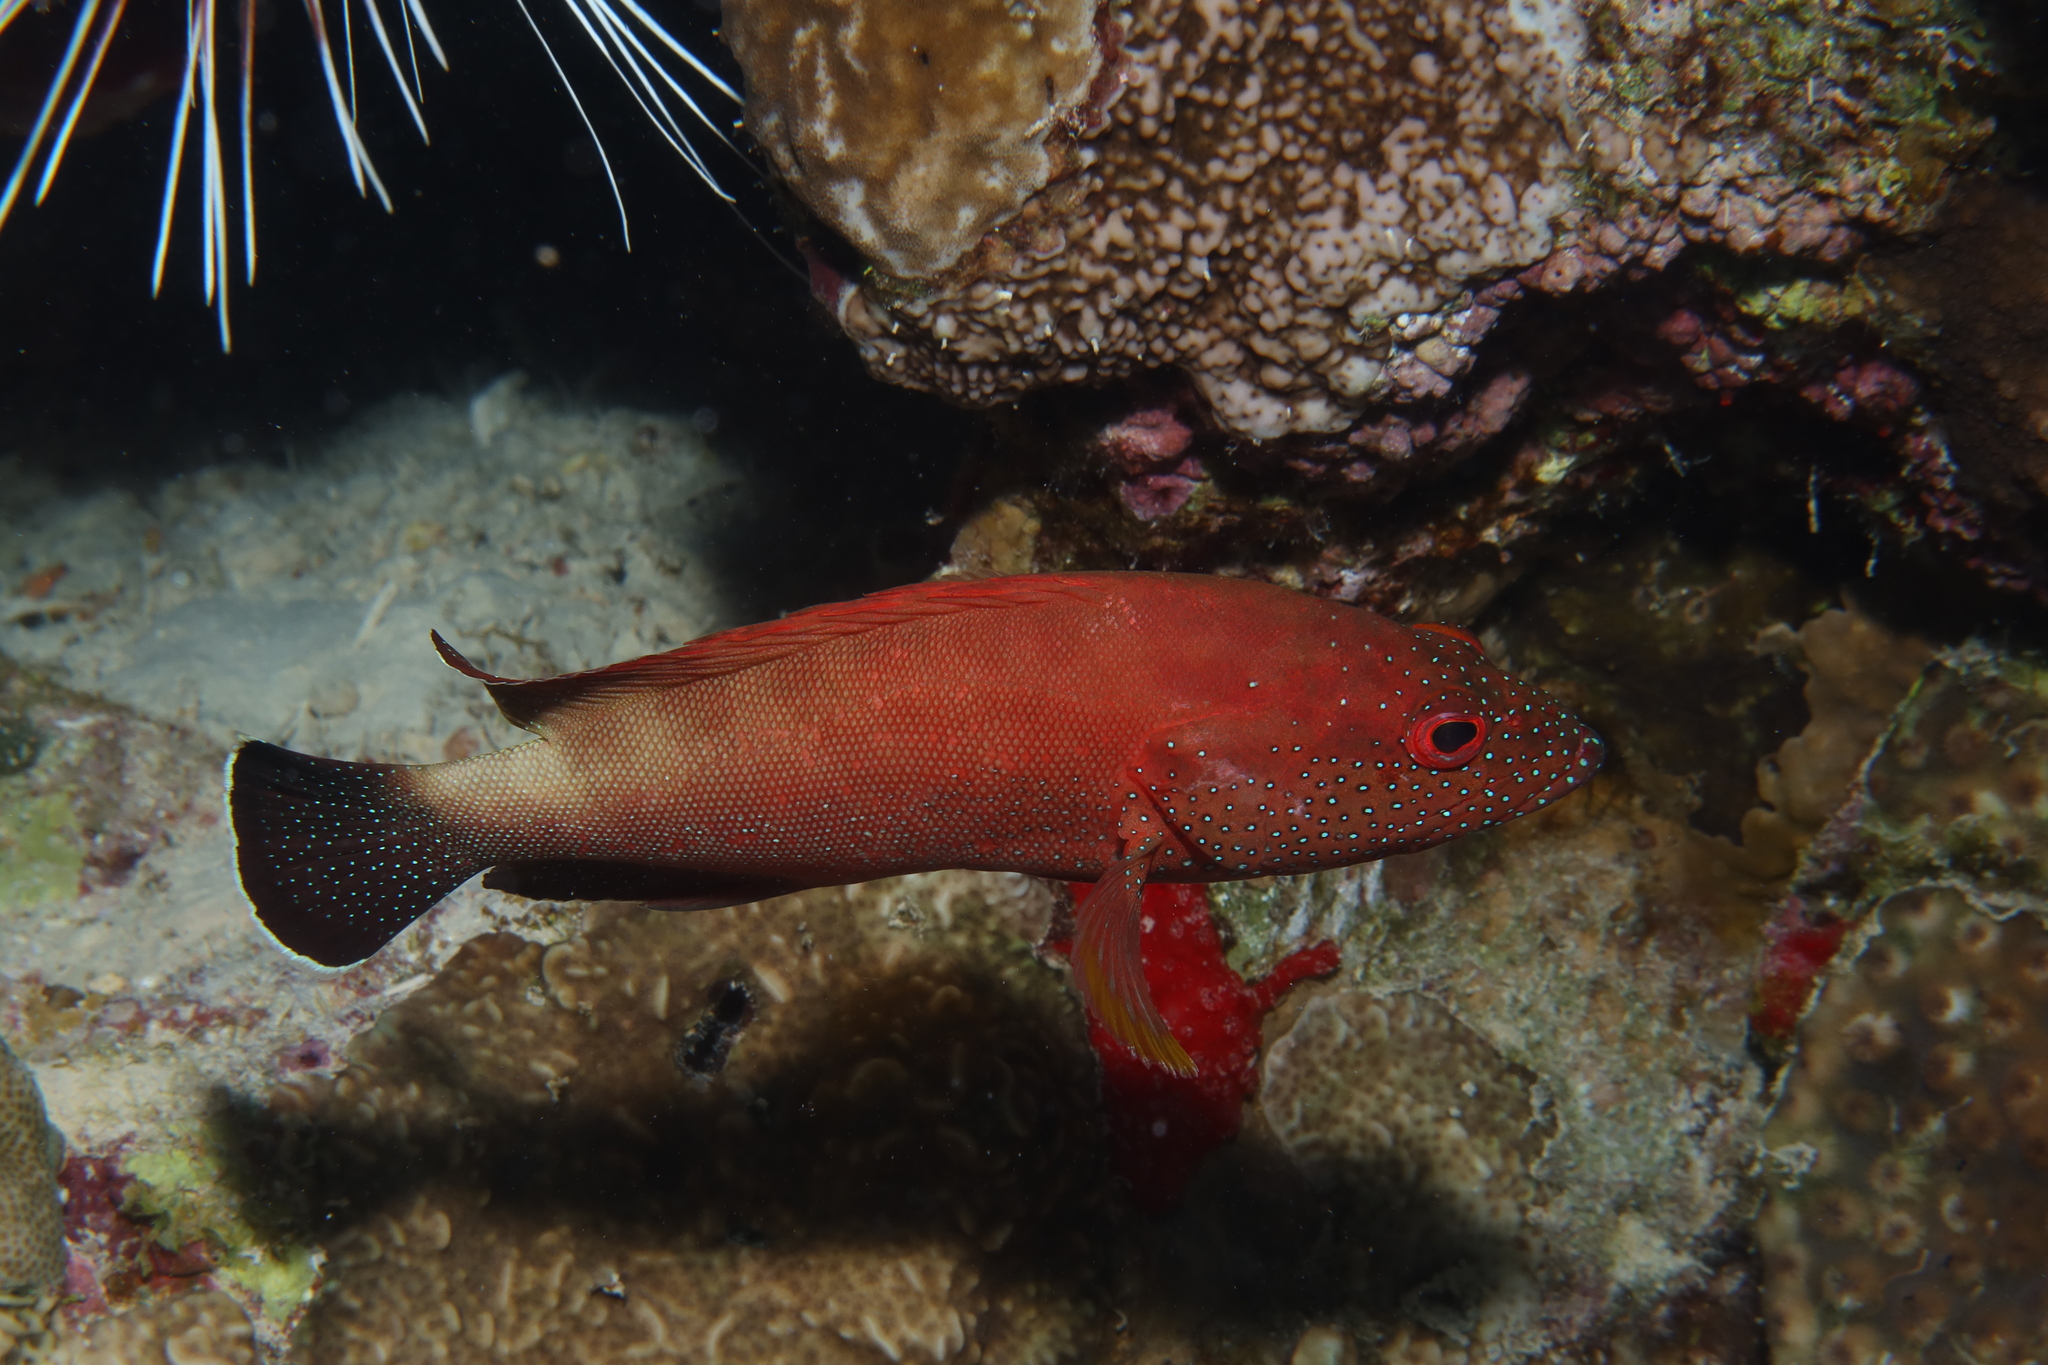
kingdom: Animalia
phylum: Chordata
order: Perciformes
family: Serranidae
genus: Cephalopholis
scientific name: Cephalopholis hemistiktos
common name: Halfspotted hind
